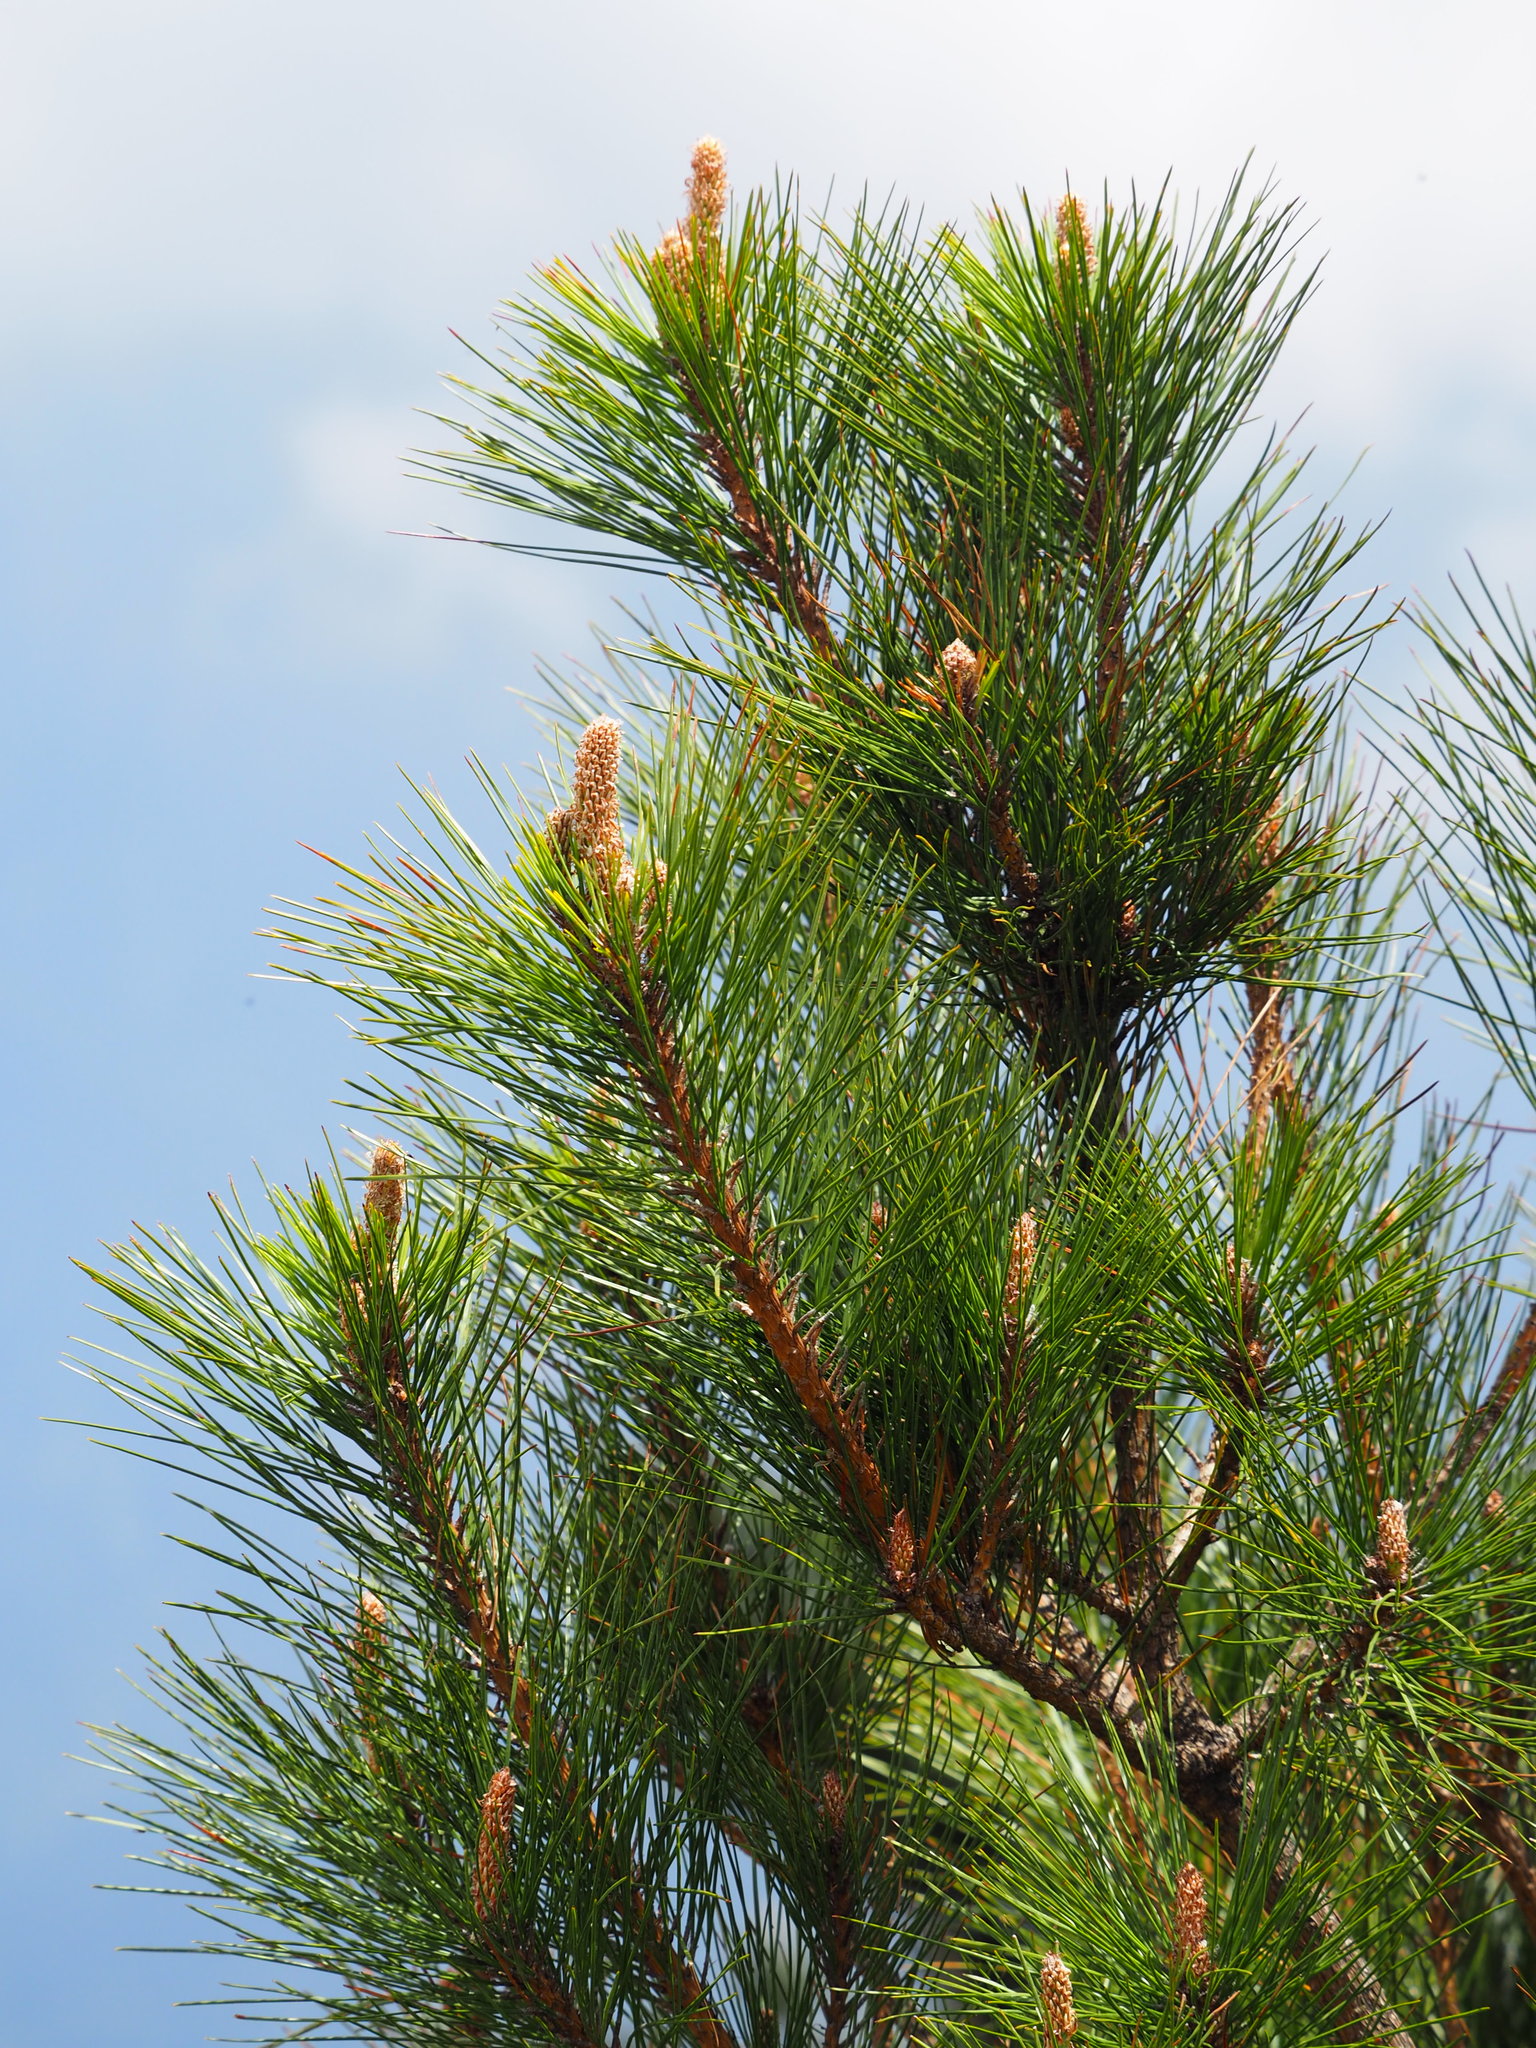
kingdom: Plantae
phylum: Tracheophyta
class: Pinopsida
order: Pinales
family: Pinaceae
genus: Pinus
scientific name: Pinus taiwanensis
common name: Formosa pine
